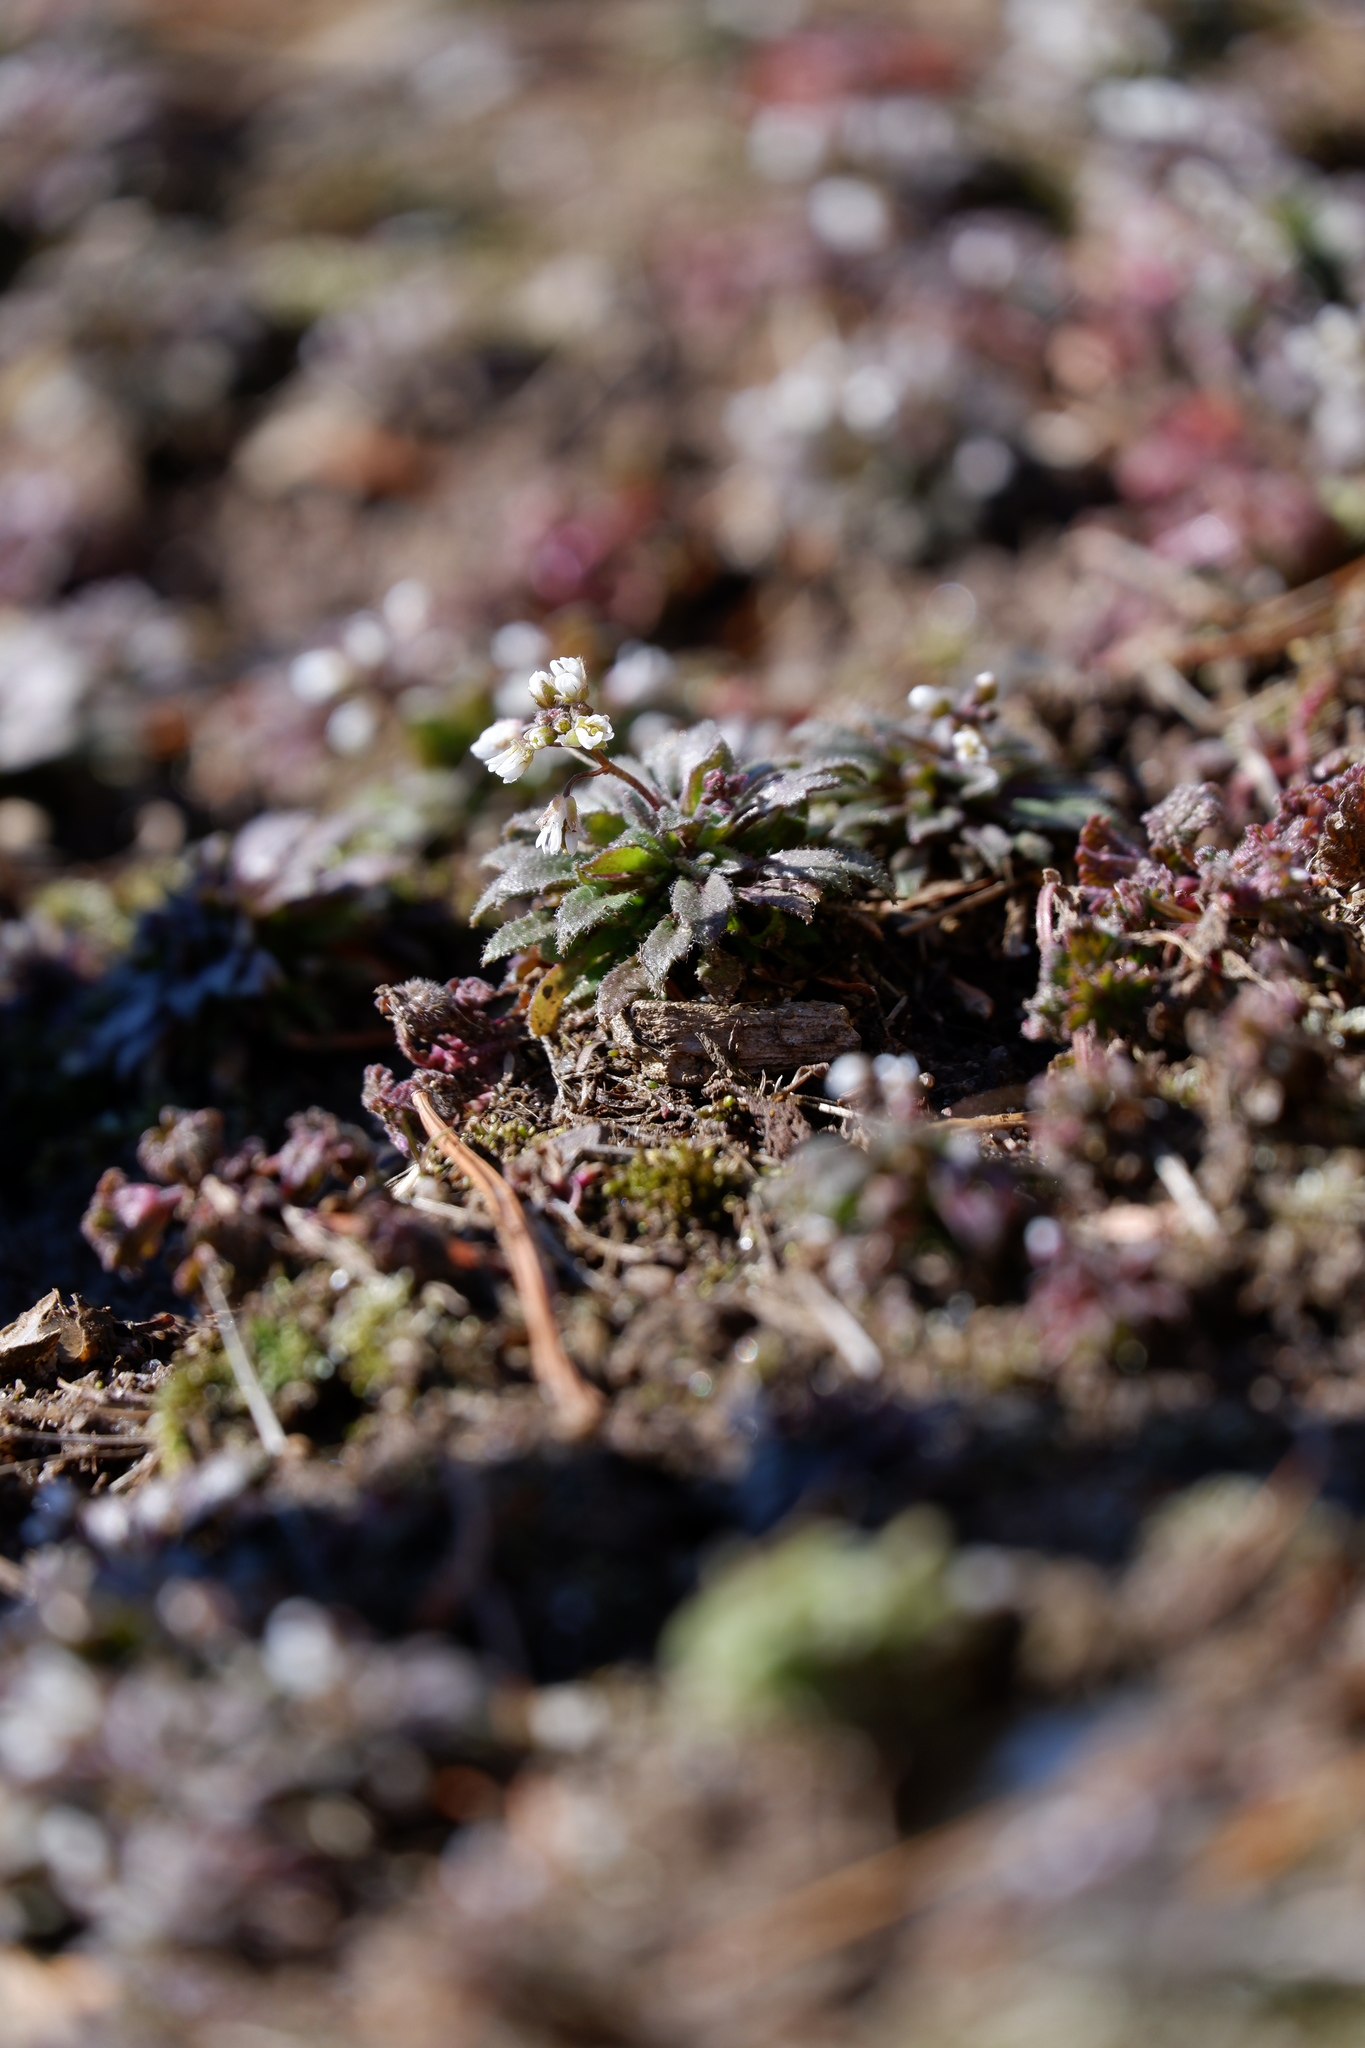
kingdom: Plantae
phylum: Tracheophyta
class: Magnoliopsida
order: Brassicales
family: Brassicaceae
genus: Draba
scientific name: Draba verna
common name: Spring draba
